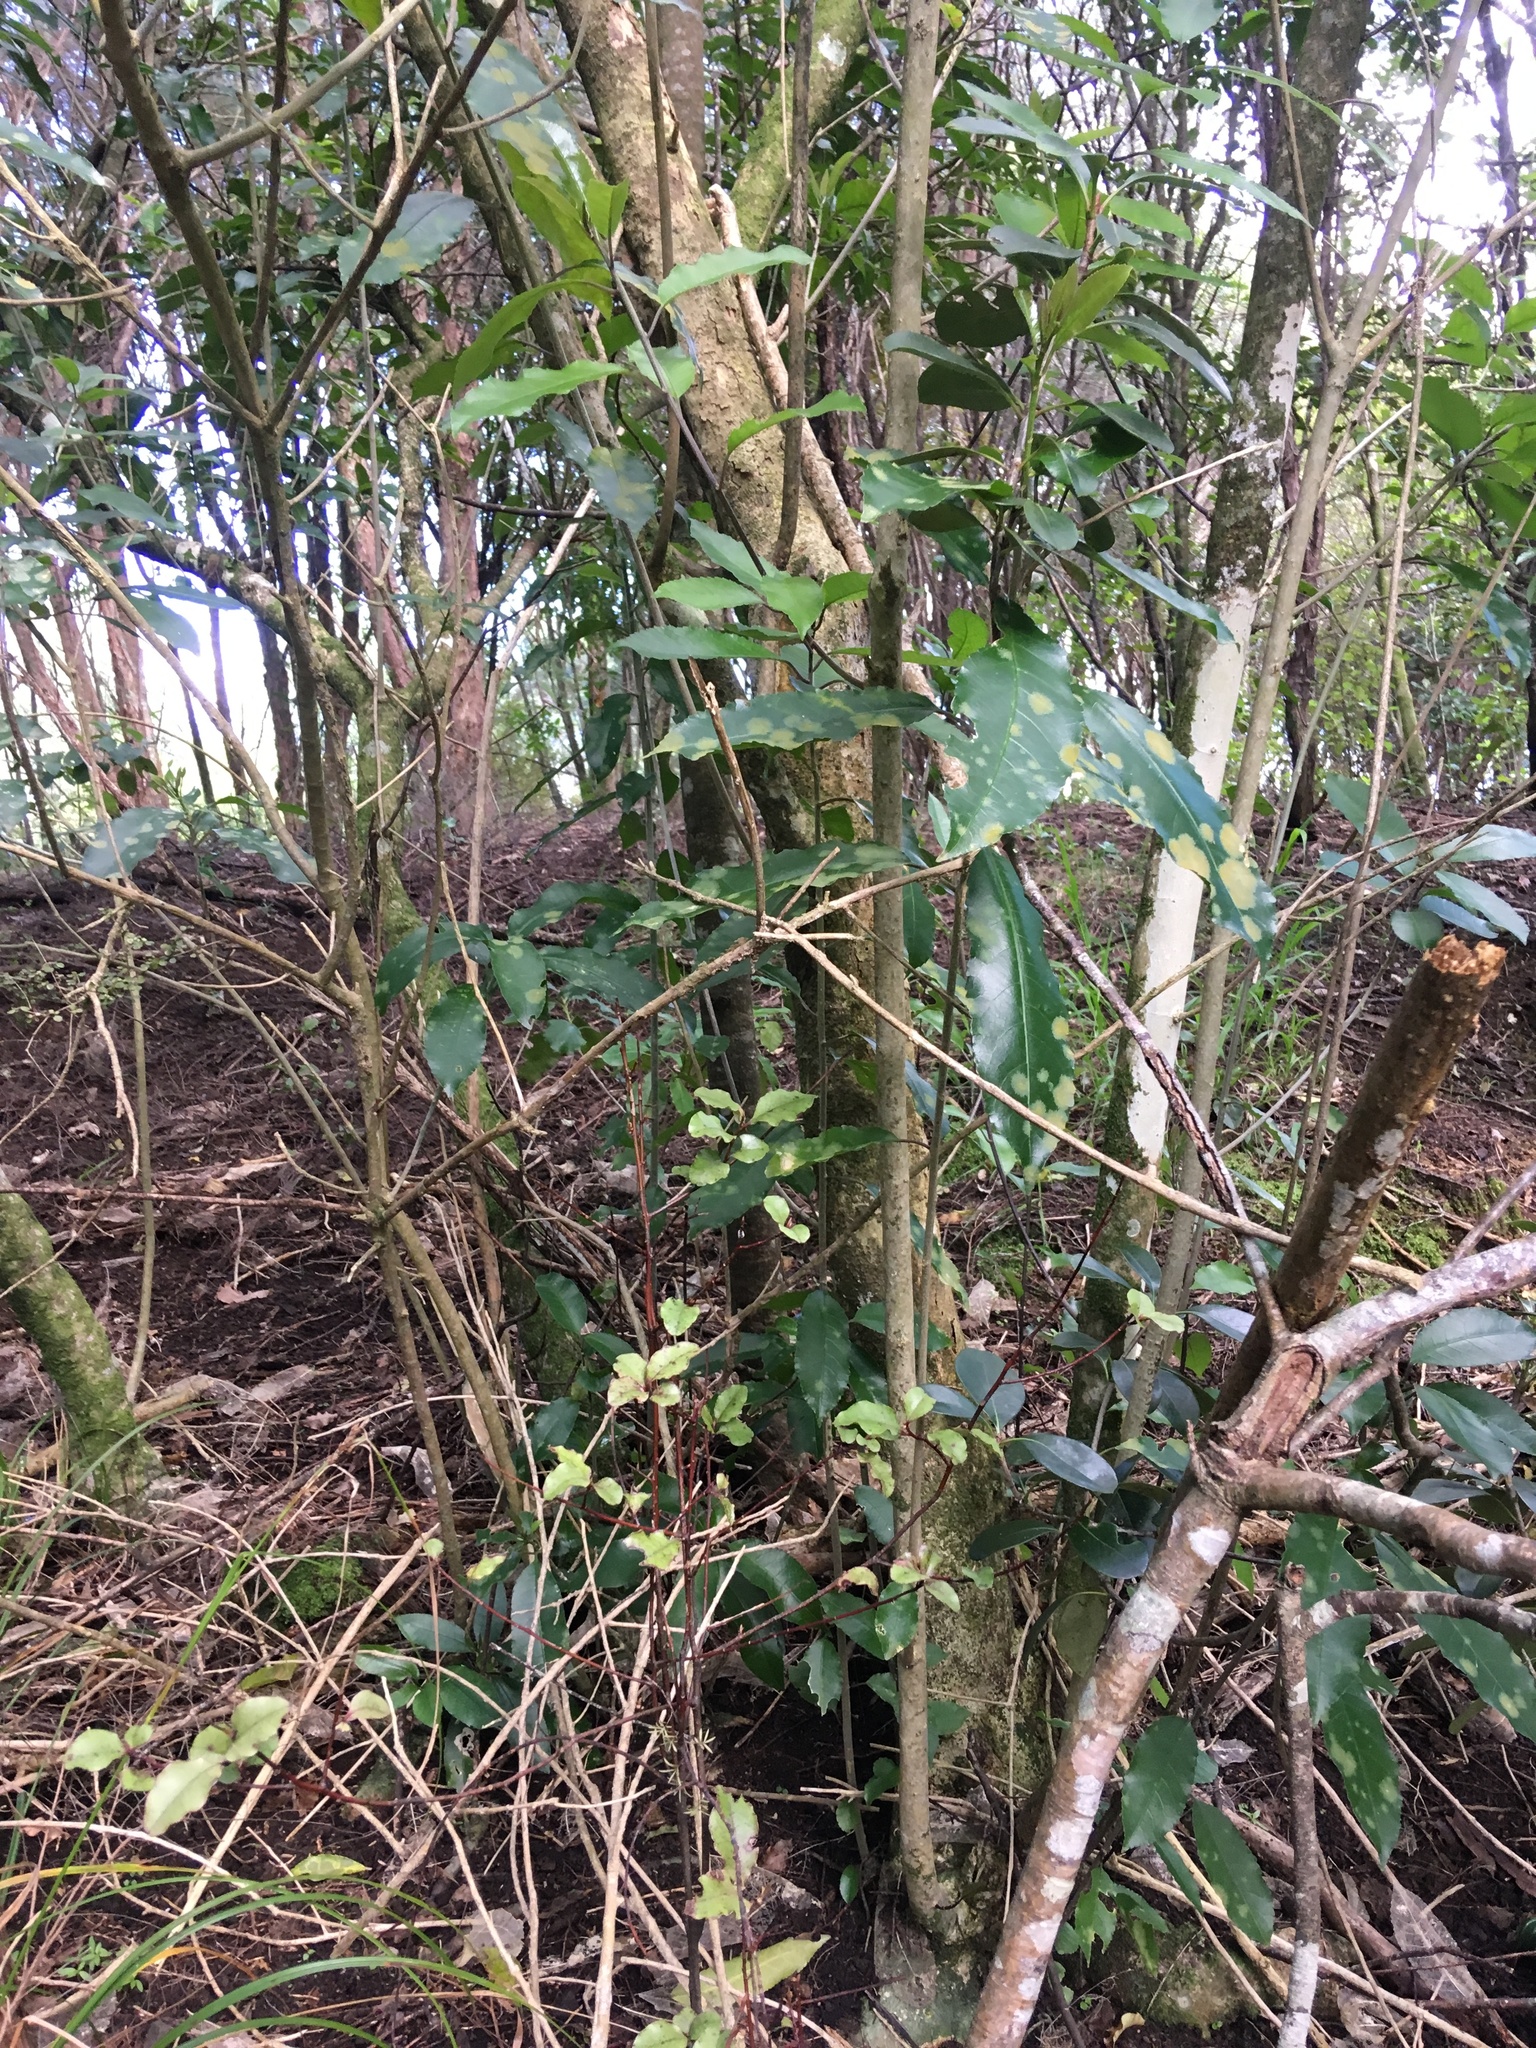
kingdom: Plantae
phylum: Tracheophyta
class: Magnoliopsida
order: Malpighiales
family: Violaceae
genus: Melicytus
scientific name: Melicytus ramiflorus
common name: Mahoe
